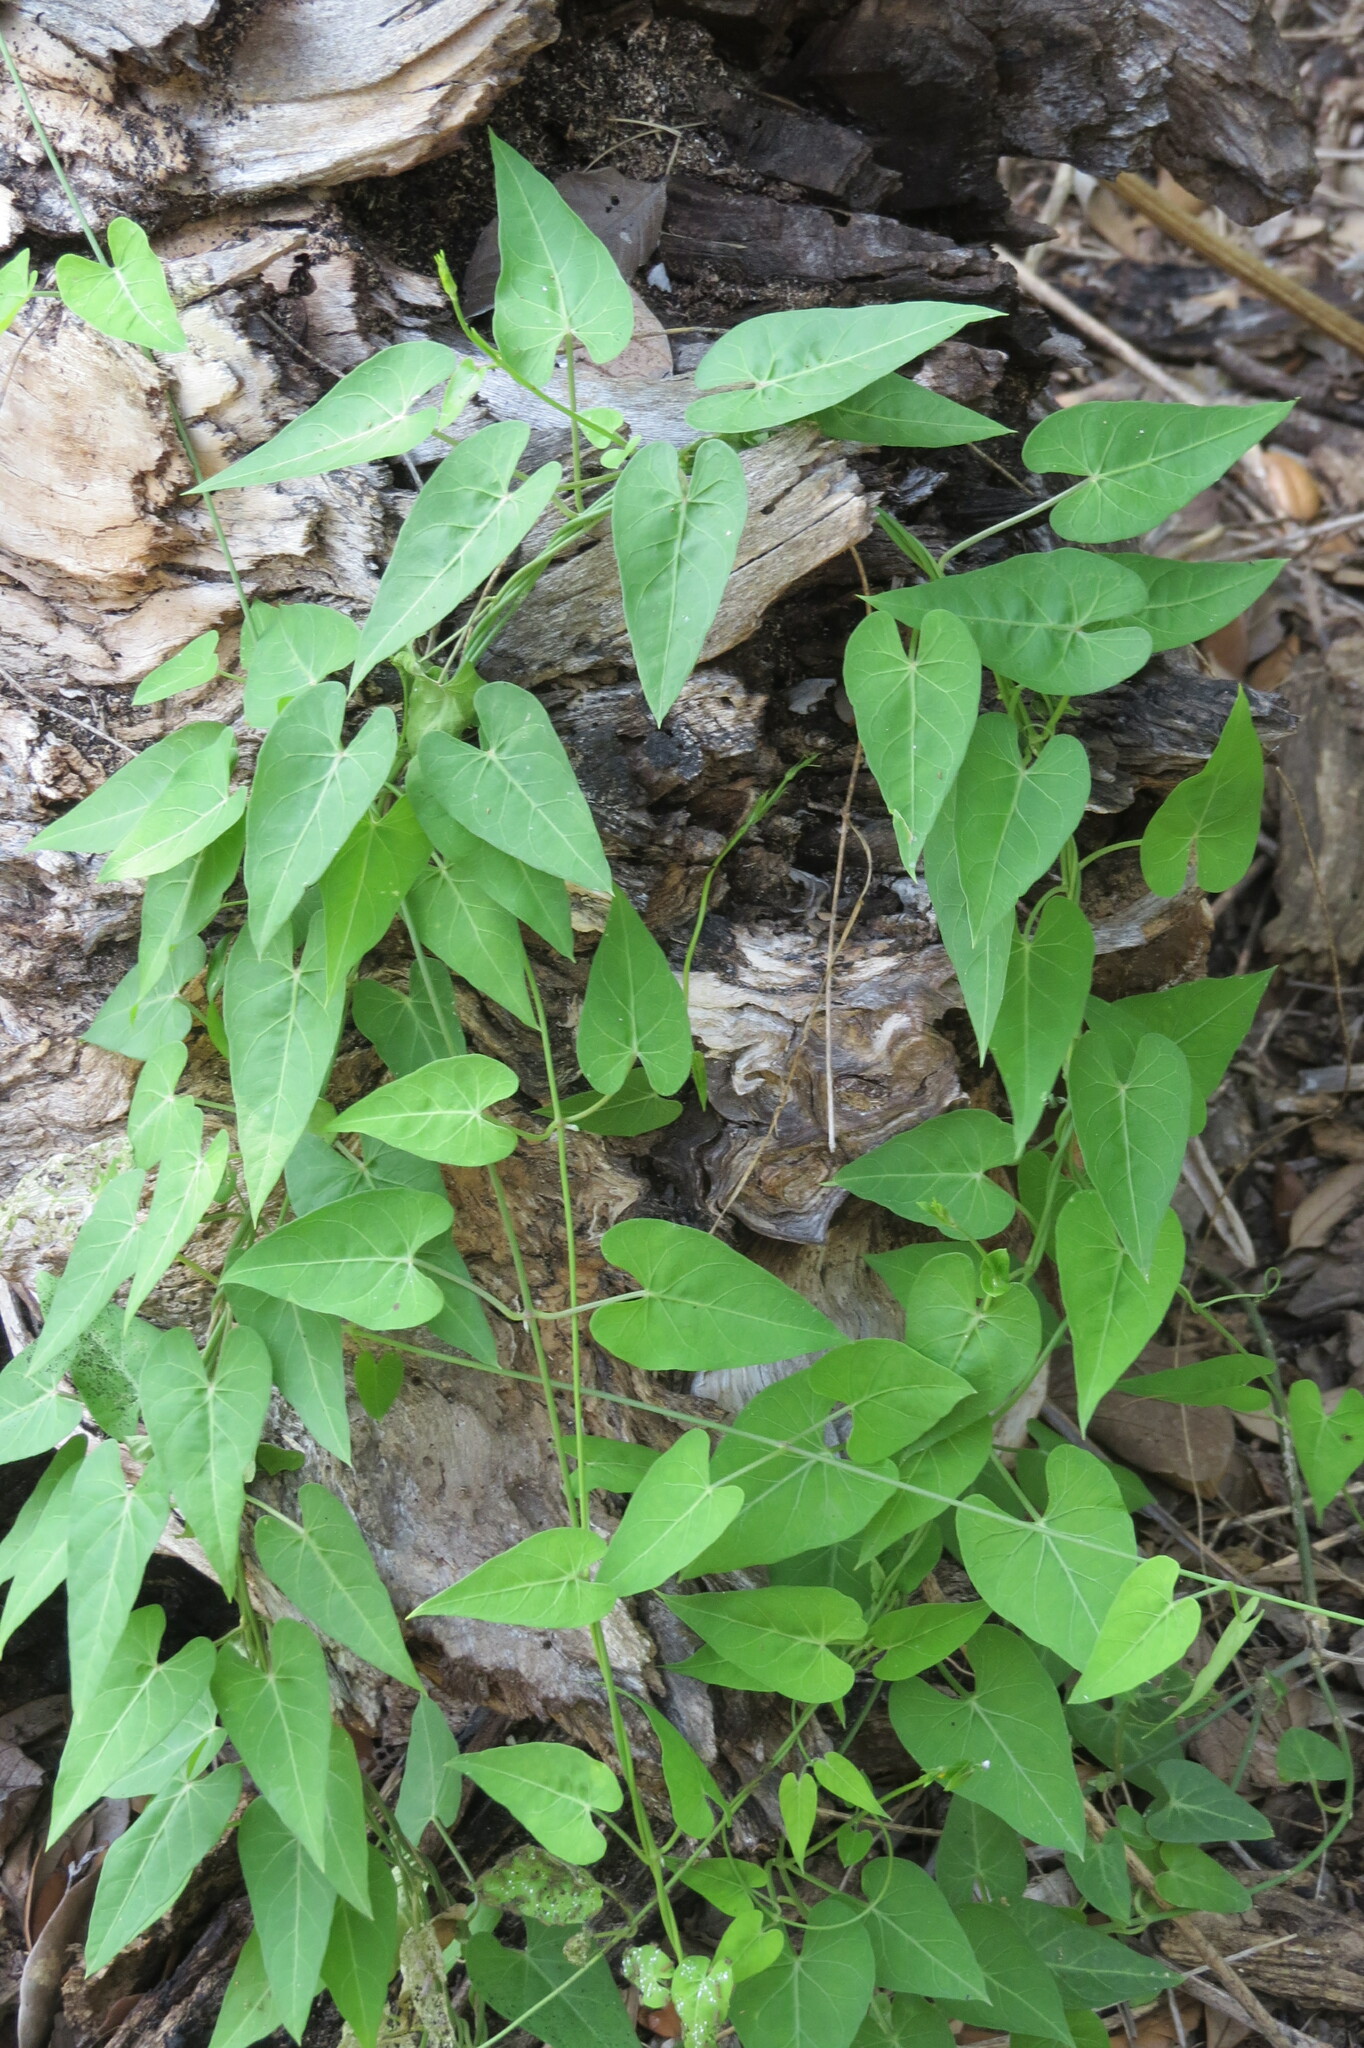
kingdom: Plantae
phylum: Tracheophyta
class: Magnoliopsida
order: Gentianales
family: Apocynaceae
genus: Funastrum
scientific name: Funastrum cynanchoides
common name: Climbing-milkweed
